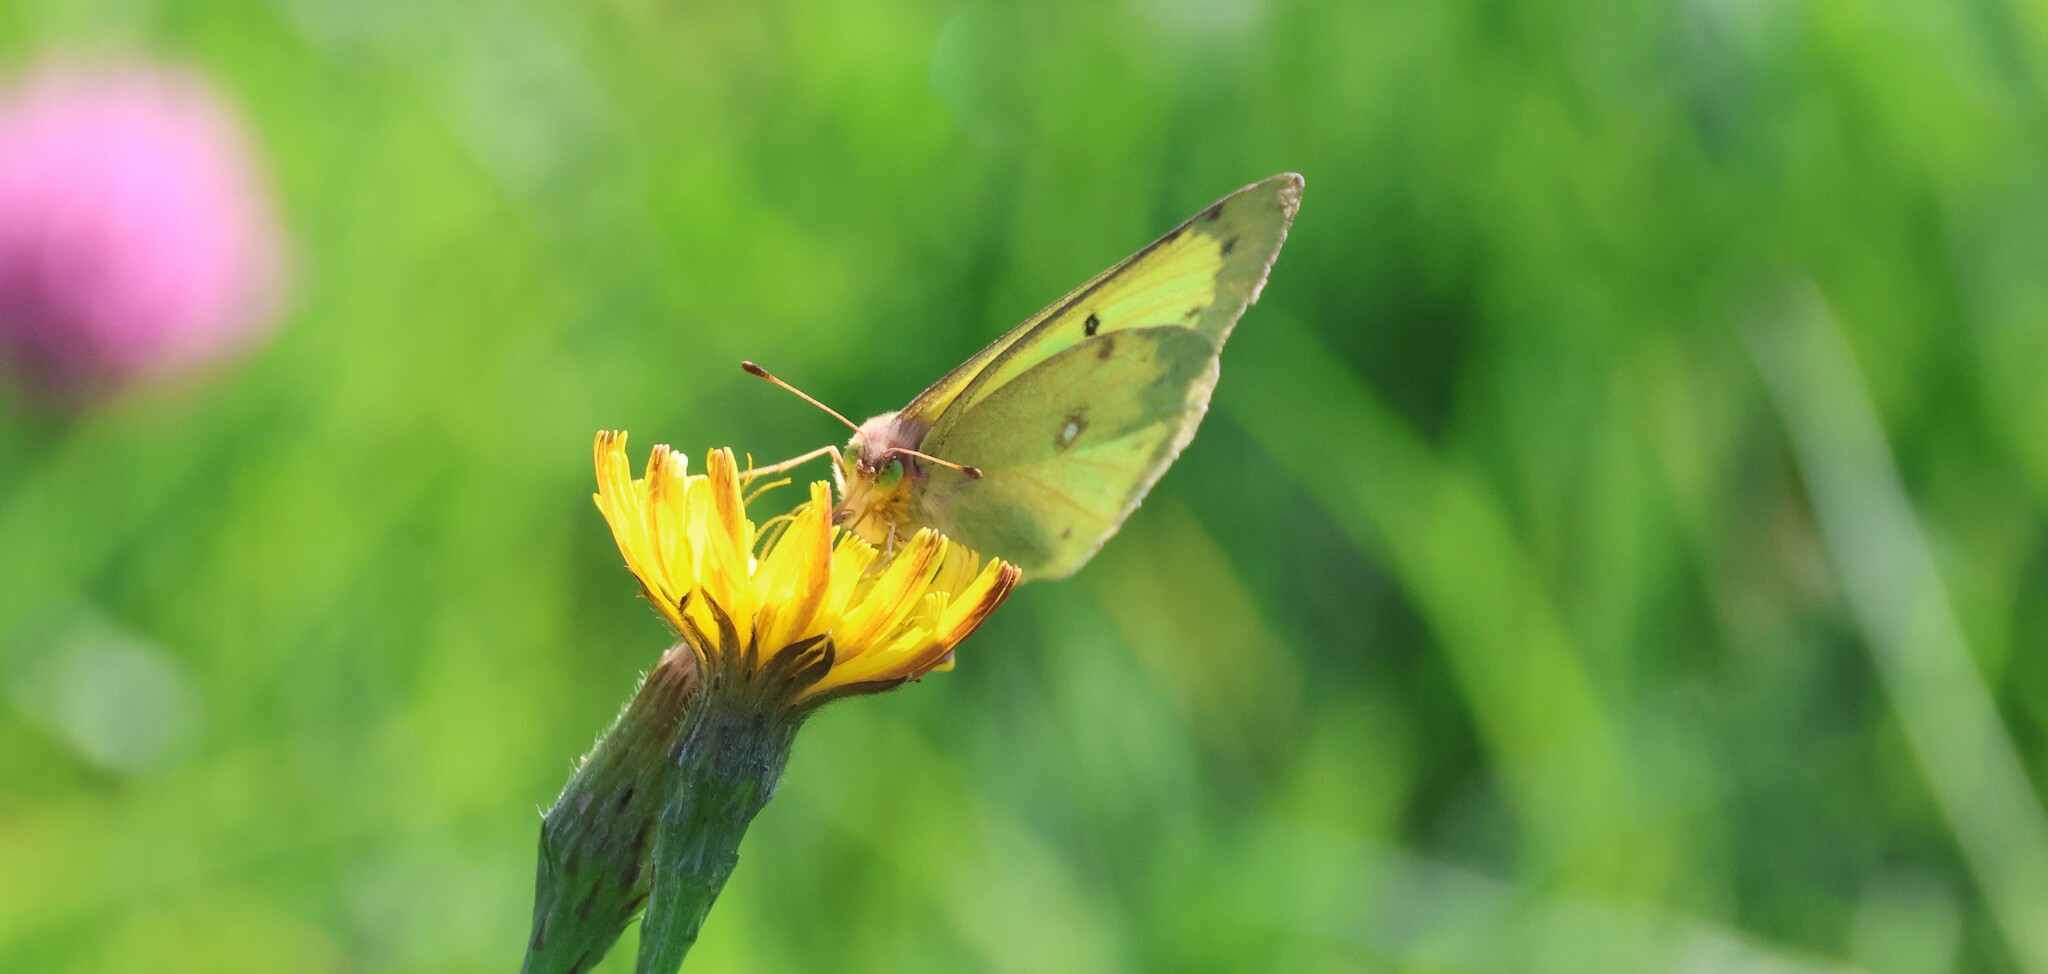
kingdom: Animalia
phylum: Arthropoda
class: Insecta
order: Lepidoptera
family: Pieridae
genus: Colias
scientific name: Colias philodice
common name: Clouded sulphur
